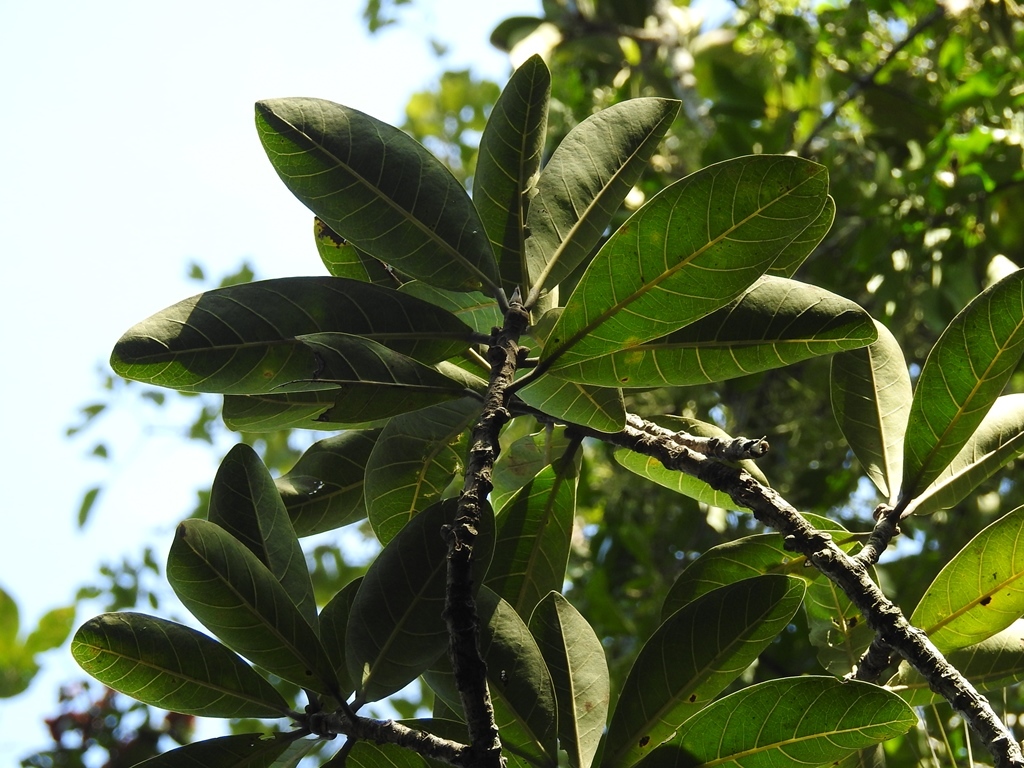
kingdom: Plantae
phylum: Tracheophyta
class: Magnoliopsida
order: Rosales
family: Moraceae
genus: Ficus
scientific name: Ficus obtusifolia
